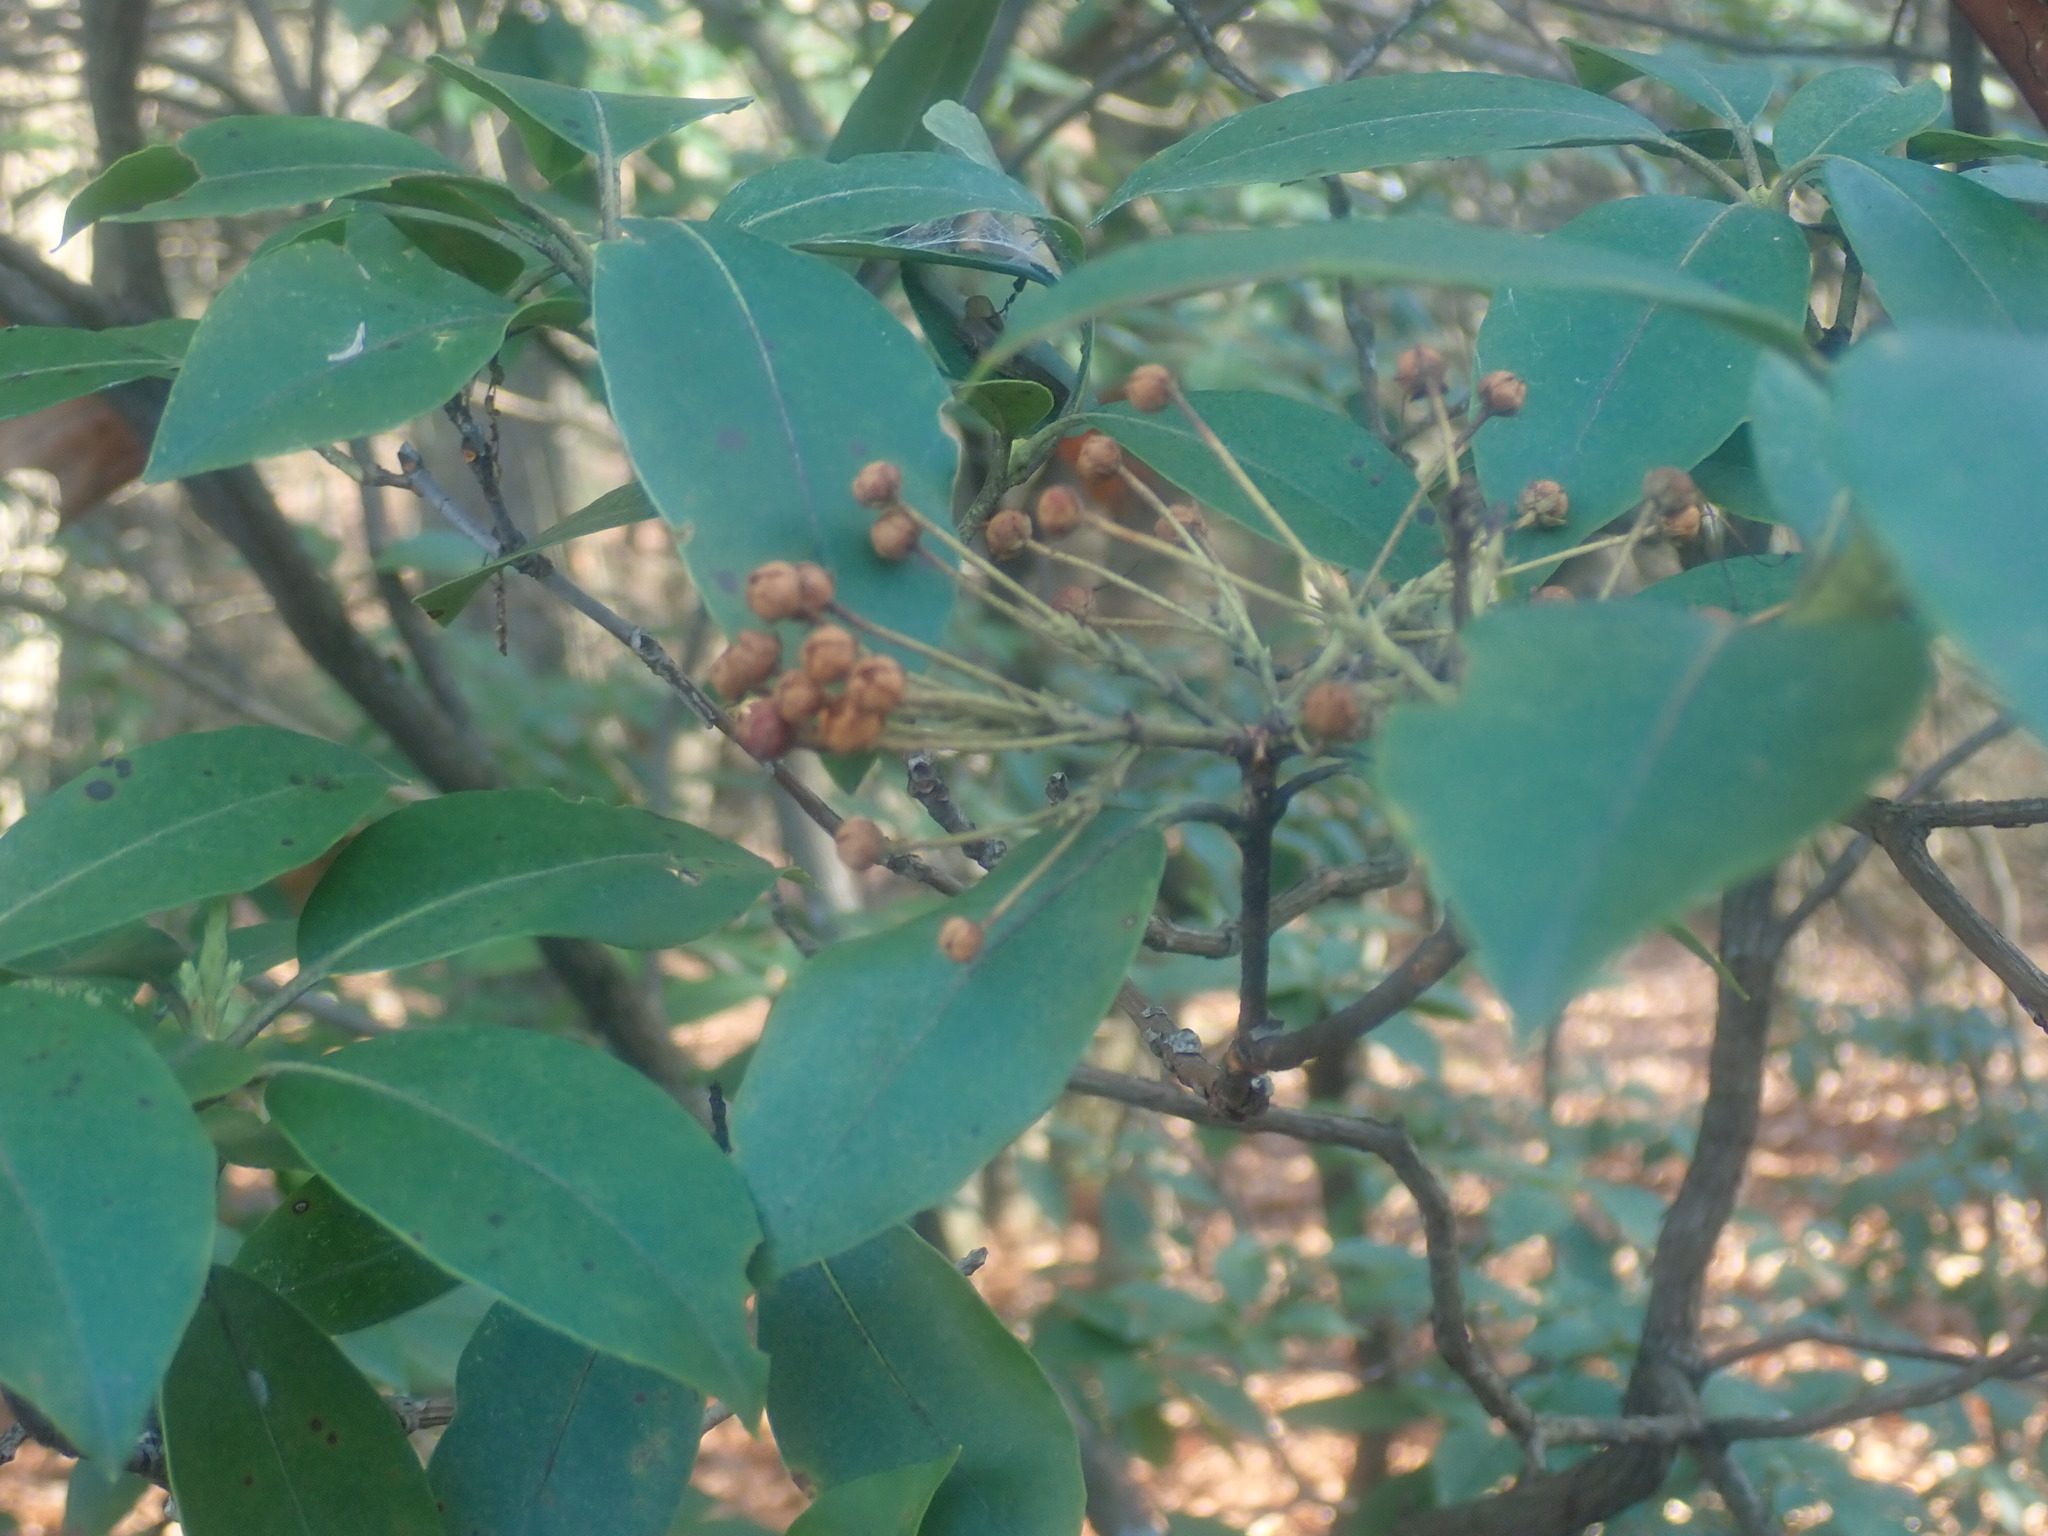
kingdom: Plantae
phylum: Tracheophyta
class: Magnoliopsida
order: Ericales
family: Ericaceae
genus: Kalmia
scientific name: Kalmia latifolia
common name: Mountain-laurel
